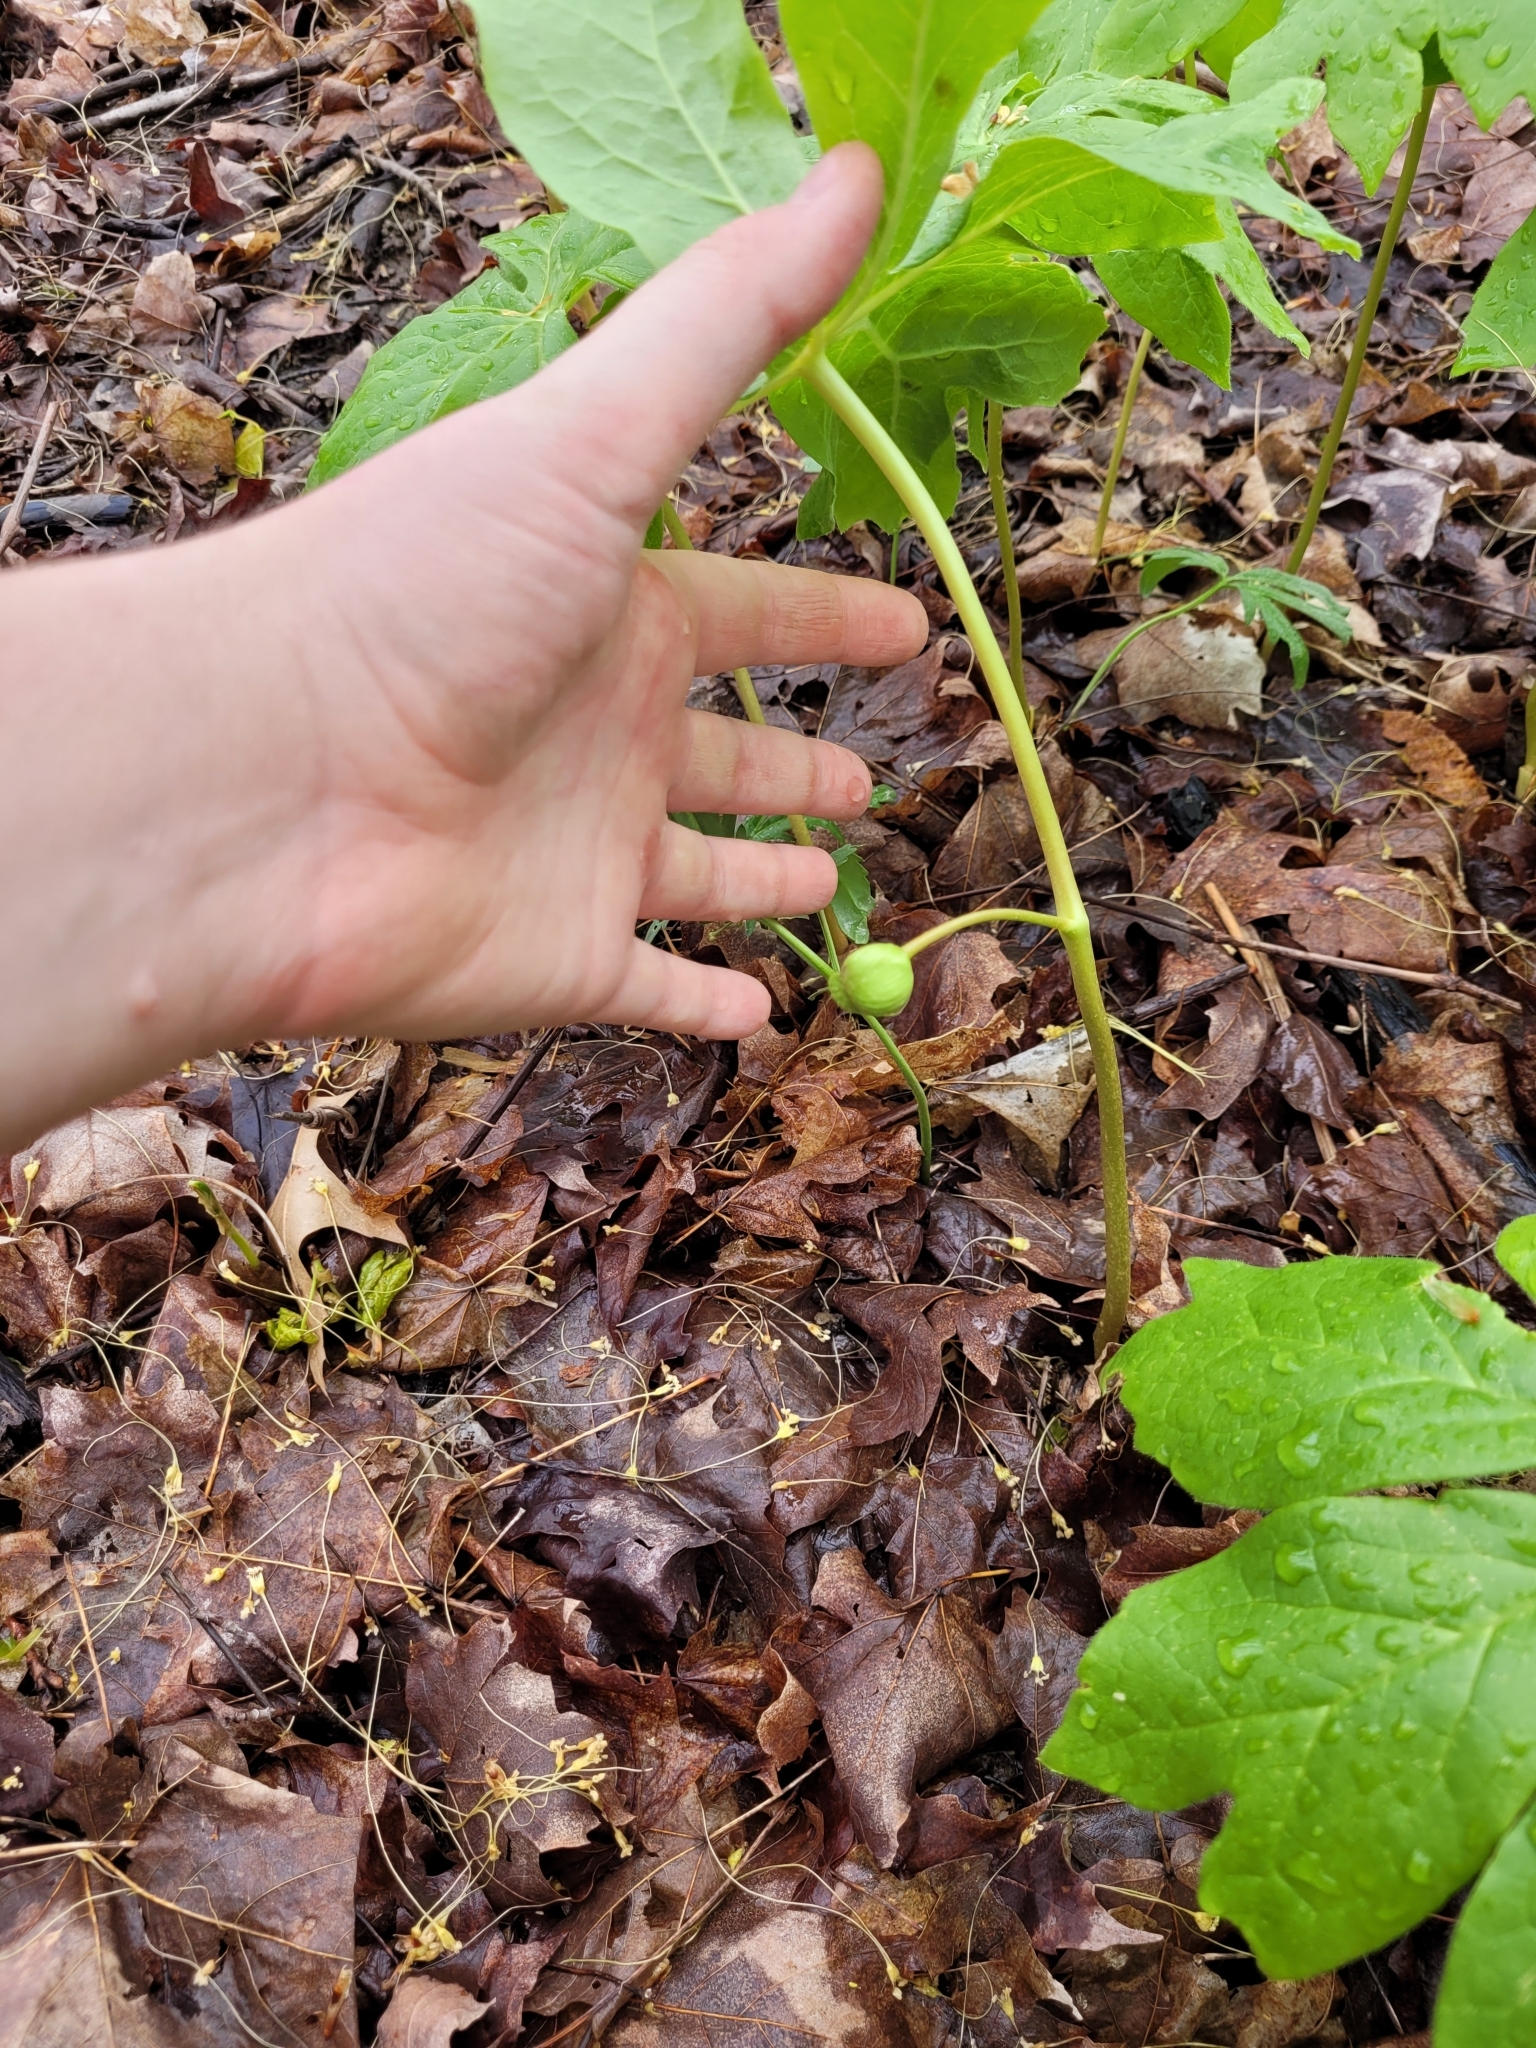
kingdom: Plantae
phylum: Tracheophyta
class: Magnoliopsida
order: Ranunculales
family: Berberidaceae
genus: Podophyllum
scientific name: Podophyllum peltatum
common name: Wild mandrake
